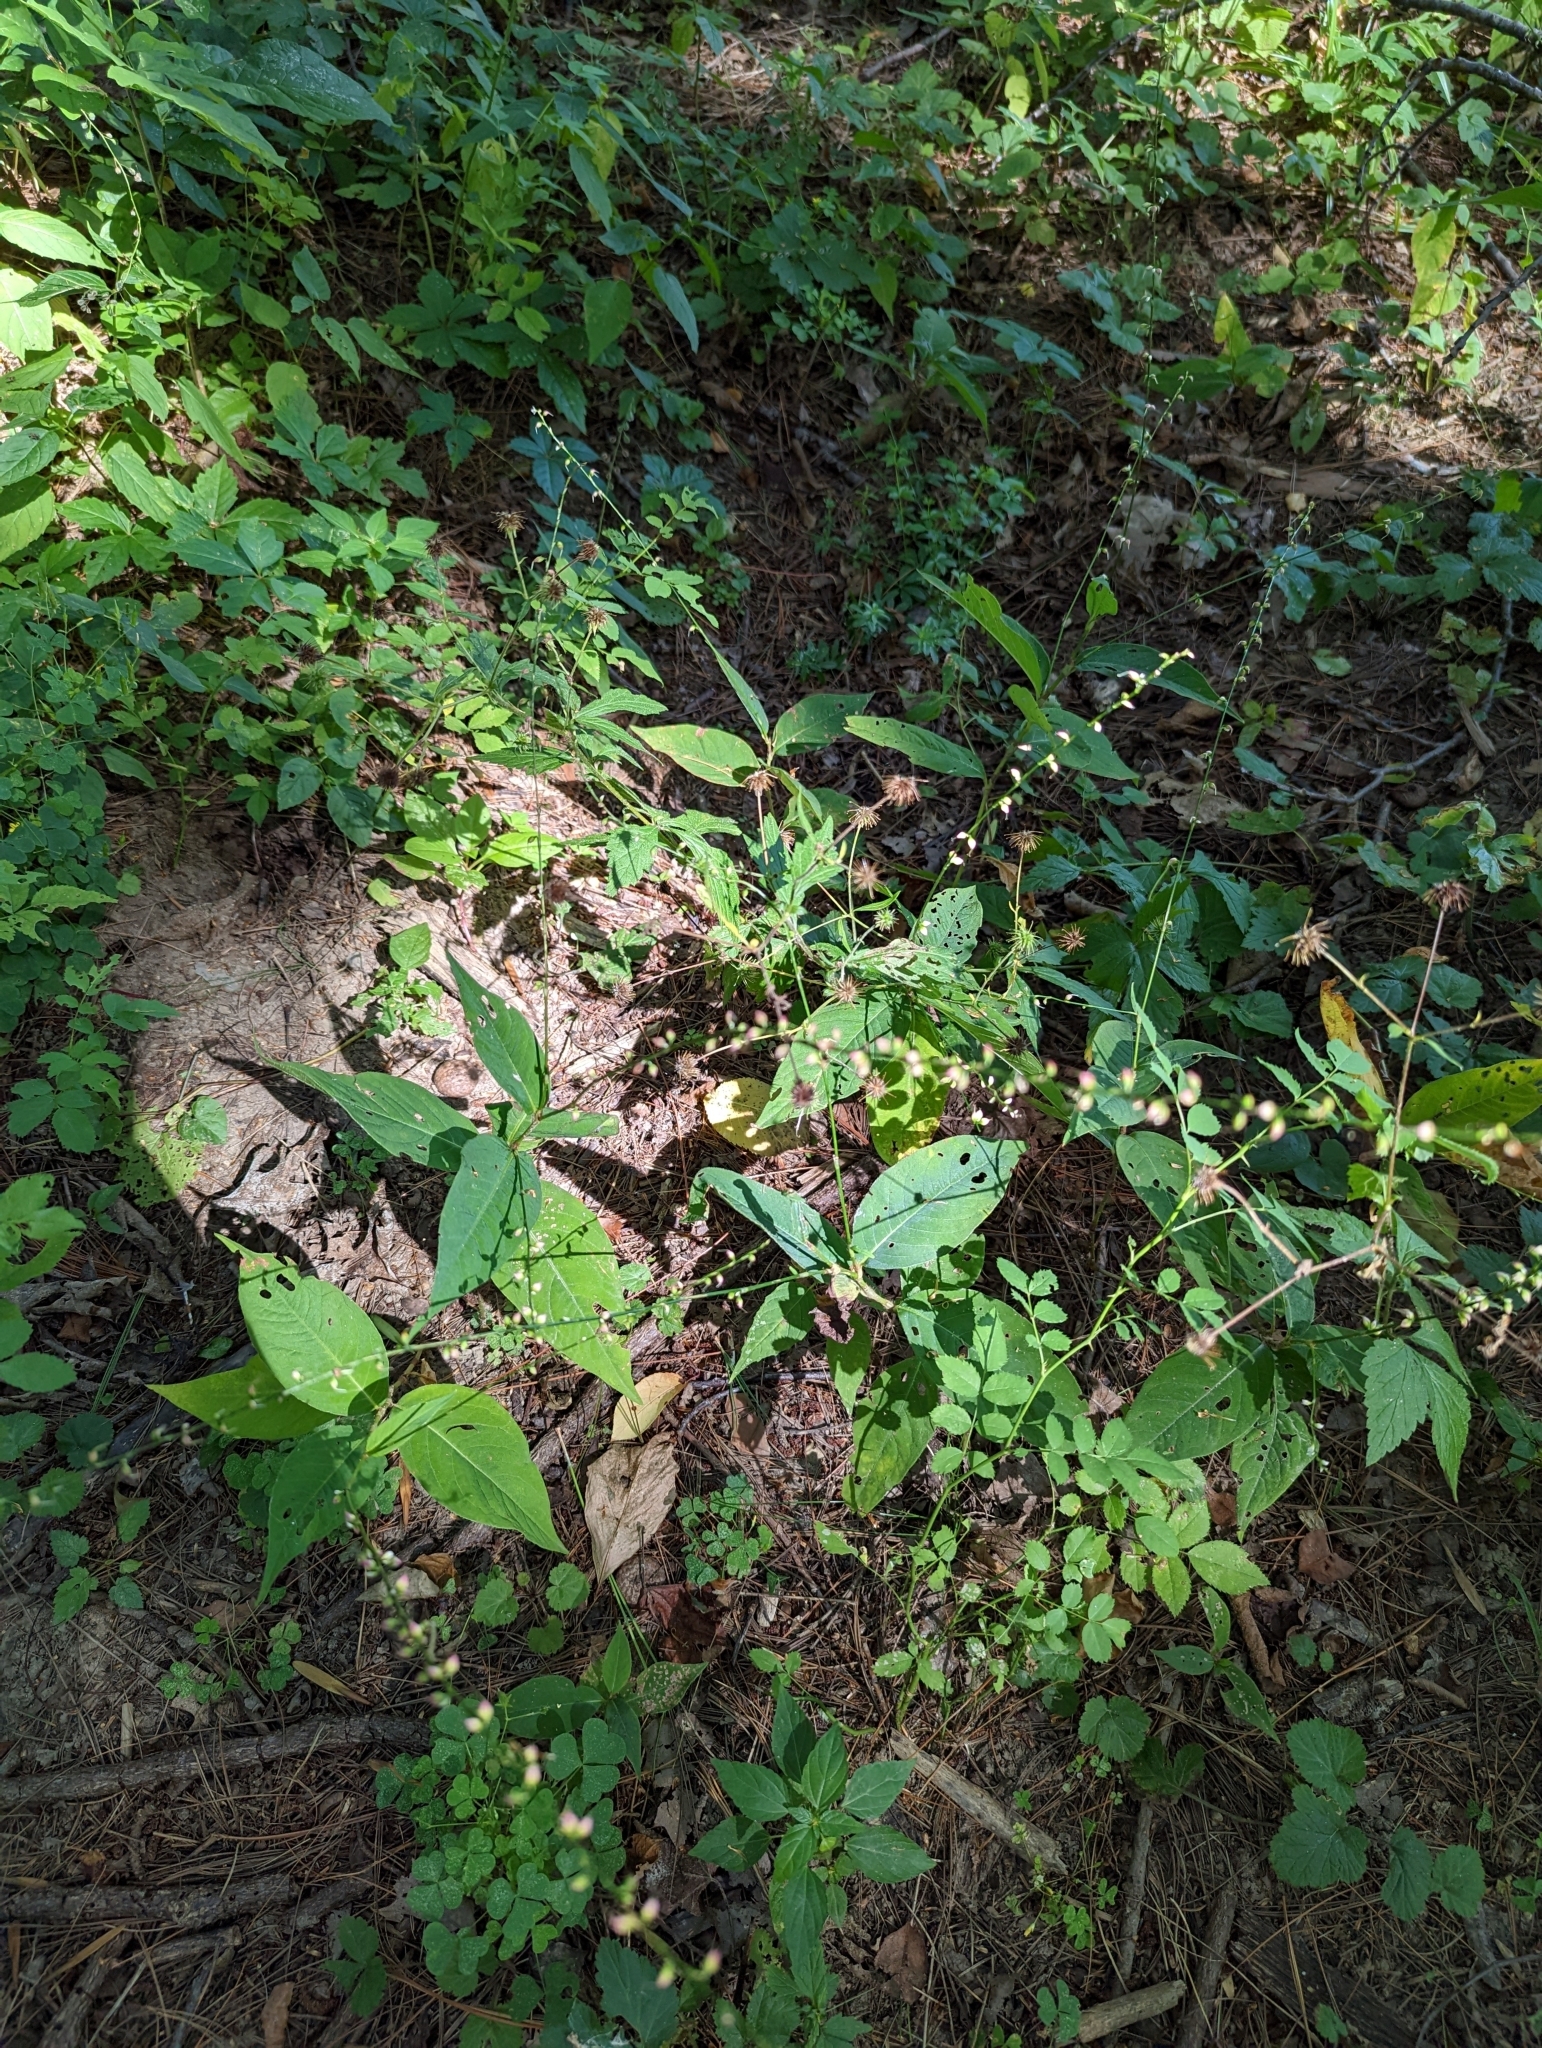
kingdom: Plantae
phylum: Tracheophyta
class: Magnoliopsida
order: Caryophyllales
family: Polygonaceae
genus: Persicaria
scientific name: Persicaria virginiana
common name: Jumpseed
